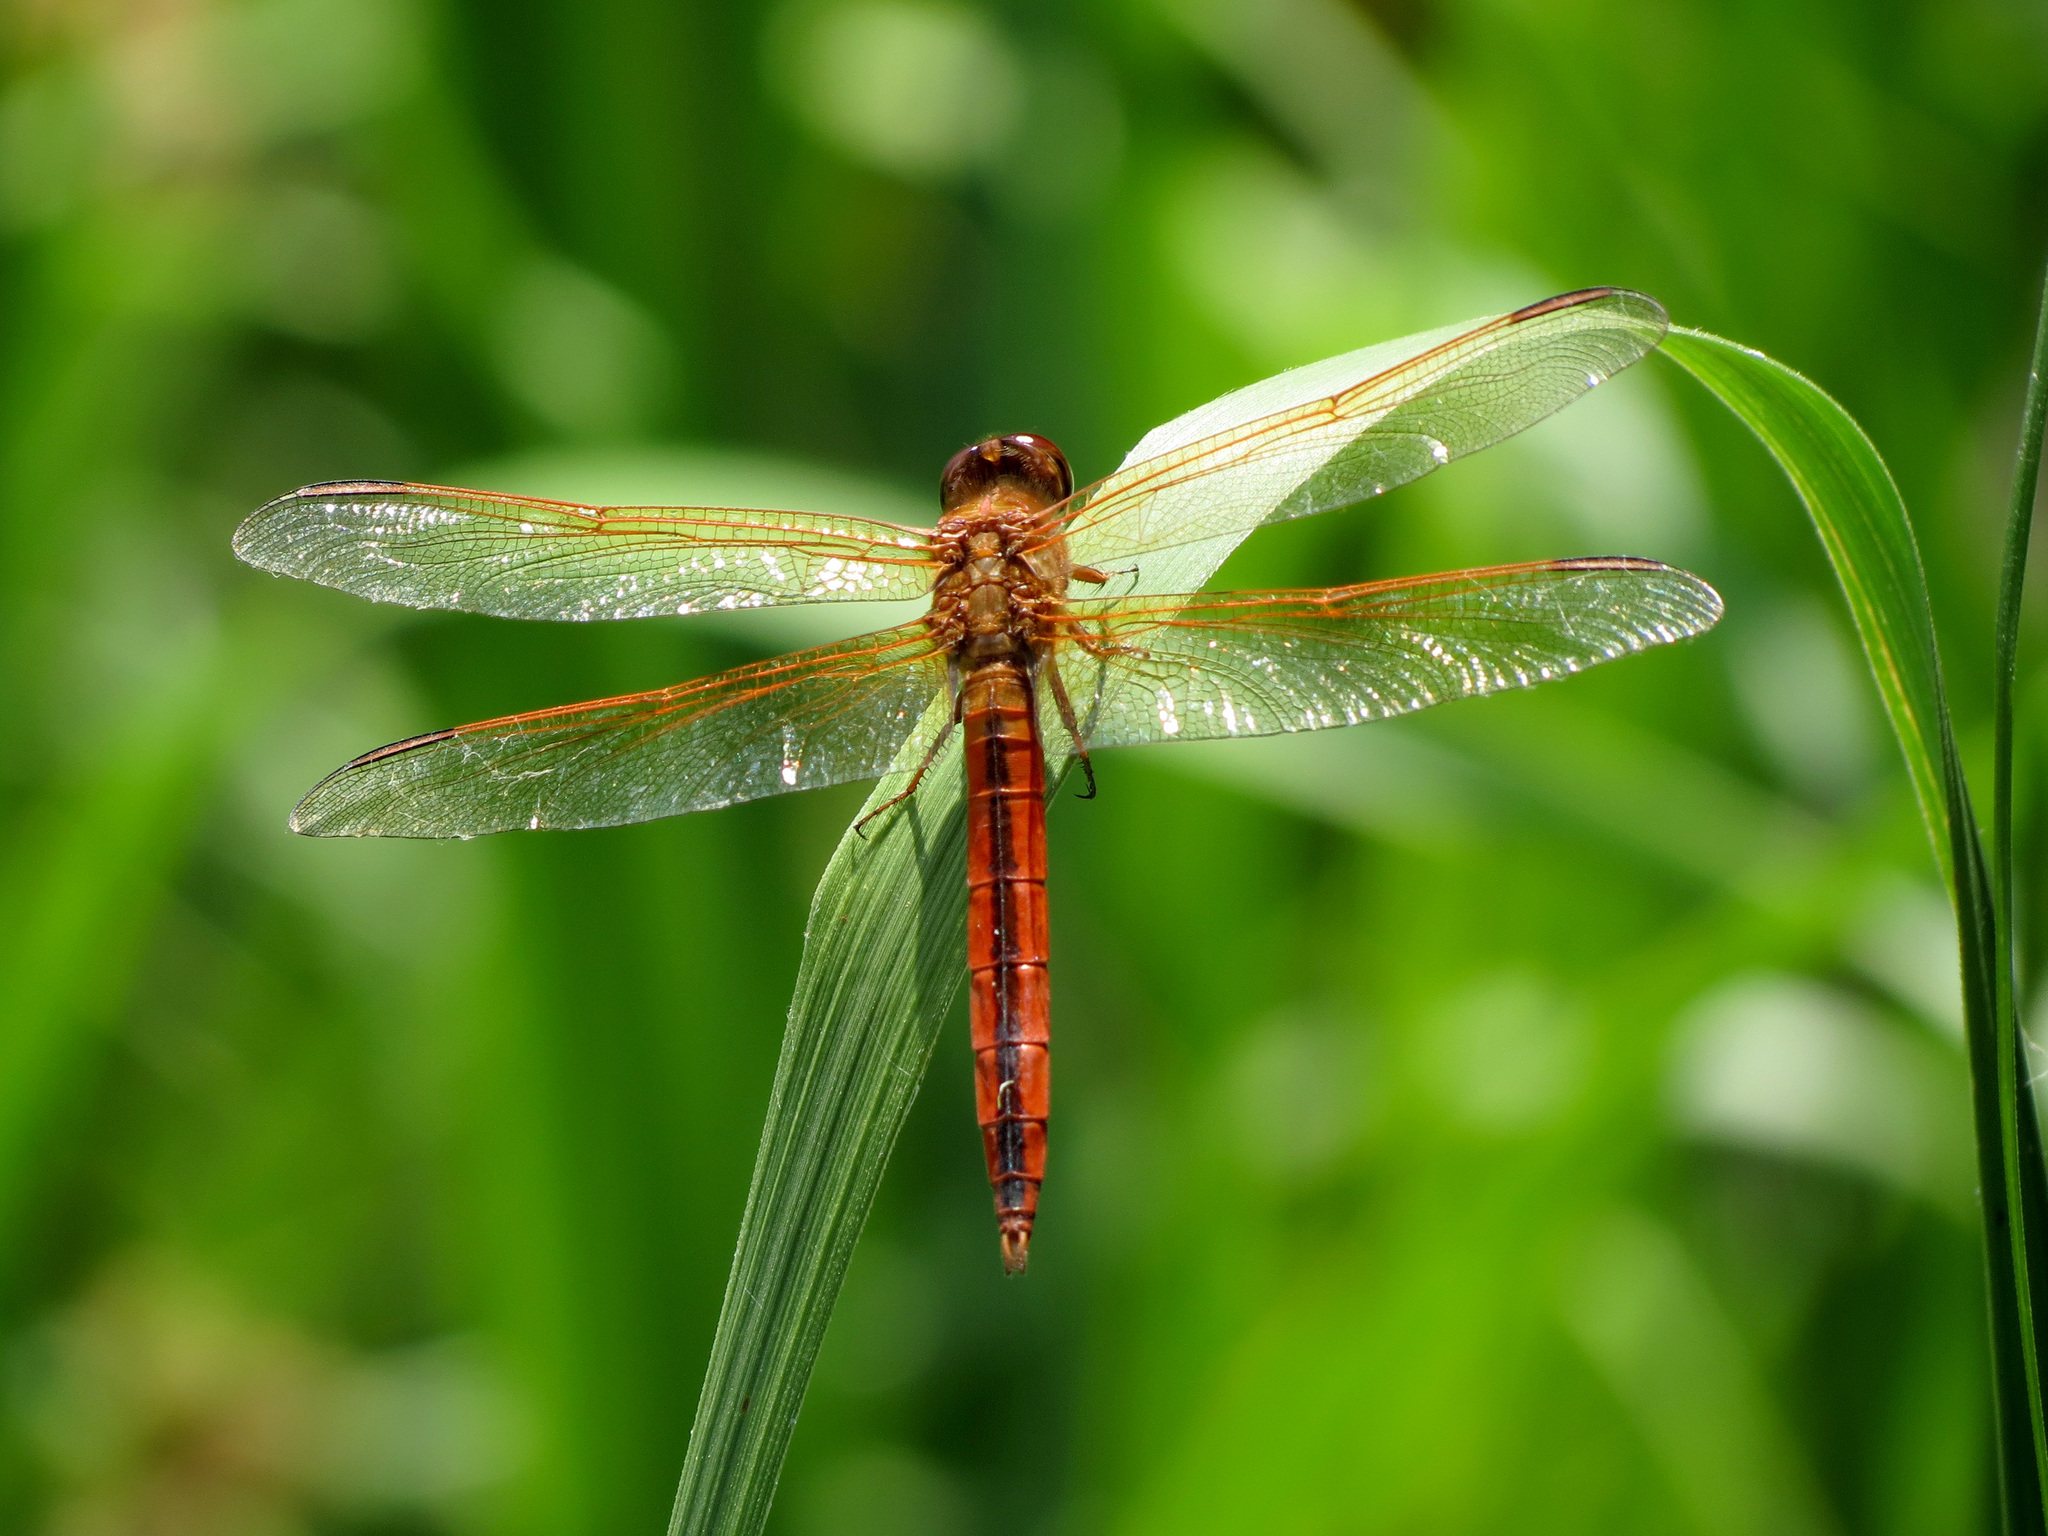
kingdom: Animalia
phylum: Arthropoda
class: Insecta
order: Odonata
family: Libellulidae
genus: Libellula
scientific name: Libellula needhami
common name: Needham's skimmer
